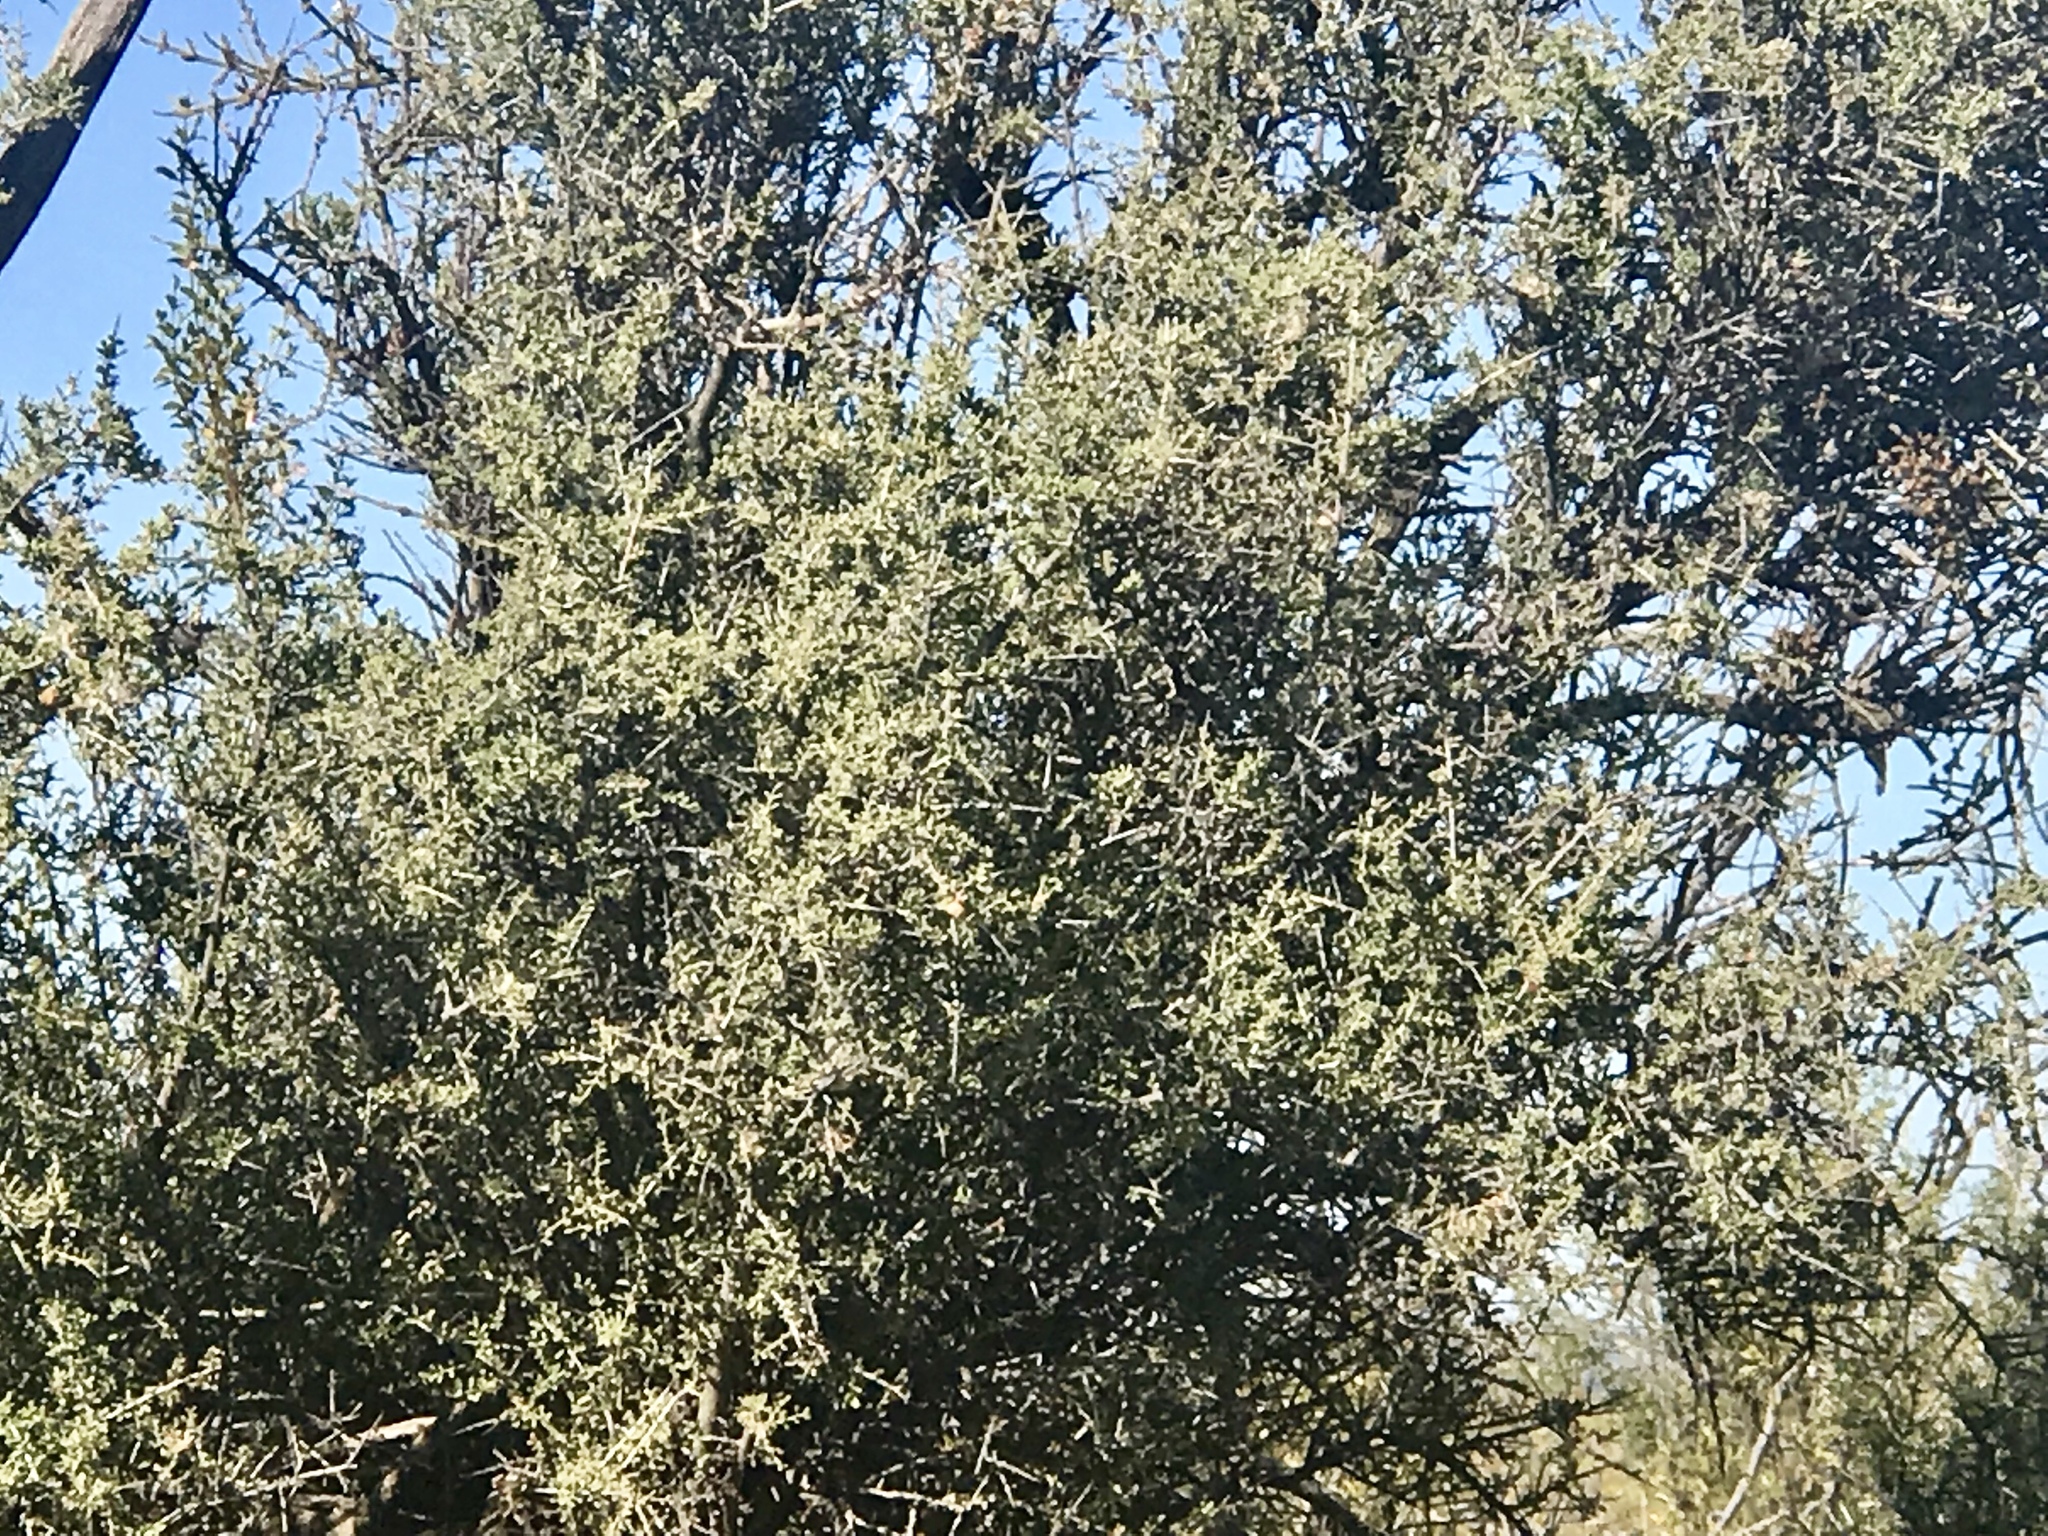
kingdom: Plantae
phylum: Tracheophyta
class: Magnoliopsida
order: Rosales
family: Rhamnaceae
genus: Sarcomphalus
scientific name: Sarcomphalus obtusifolius
